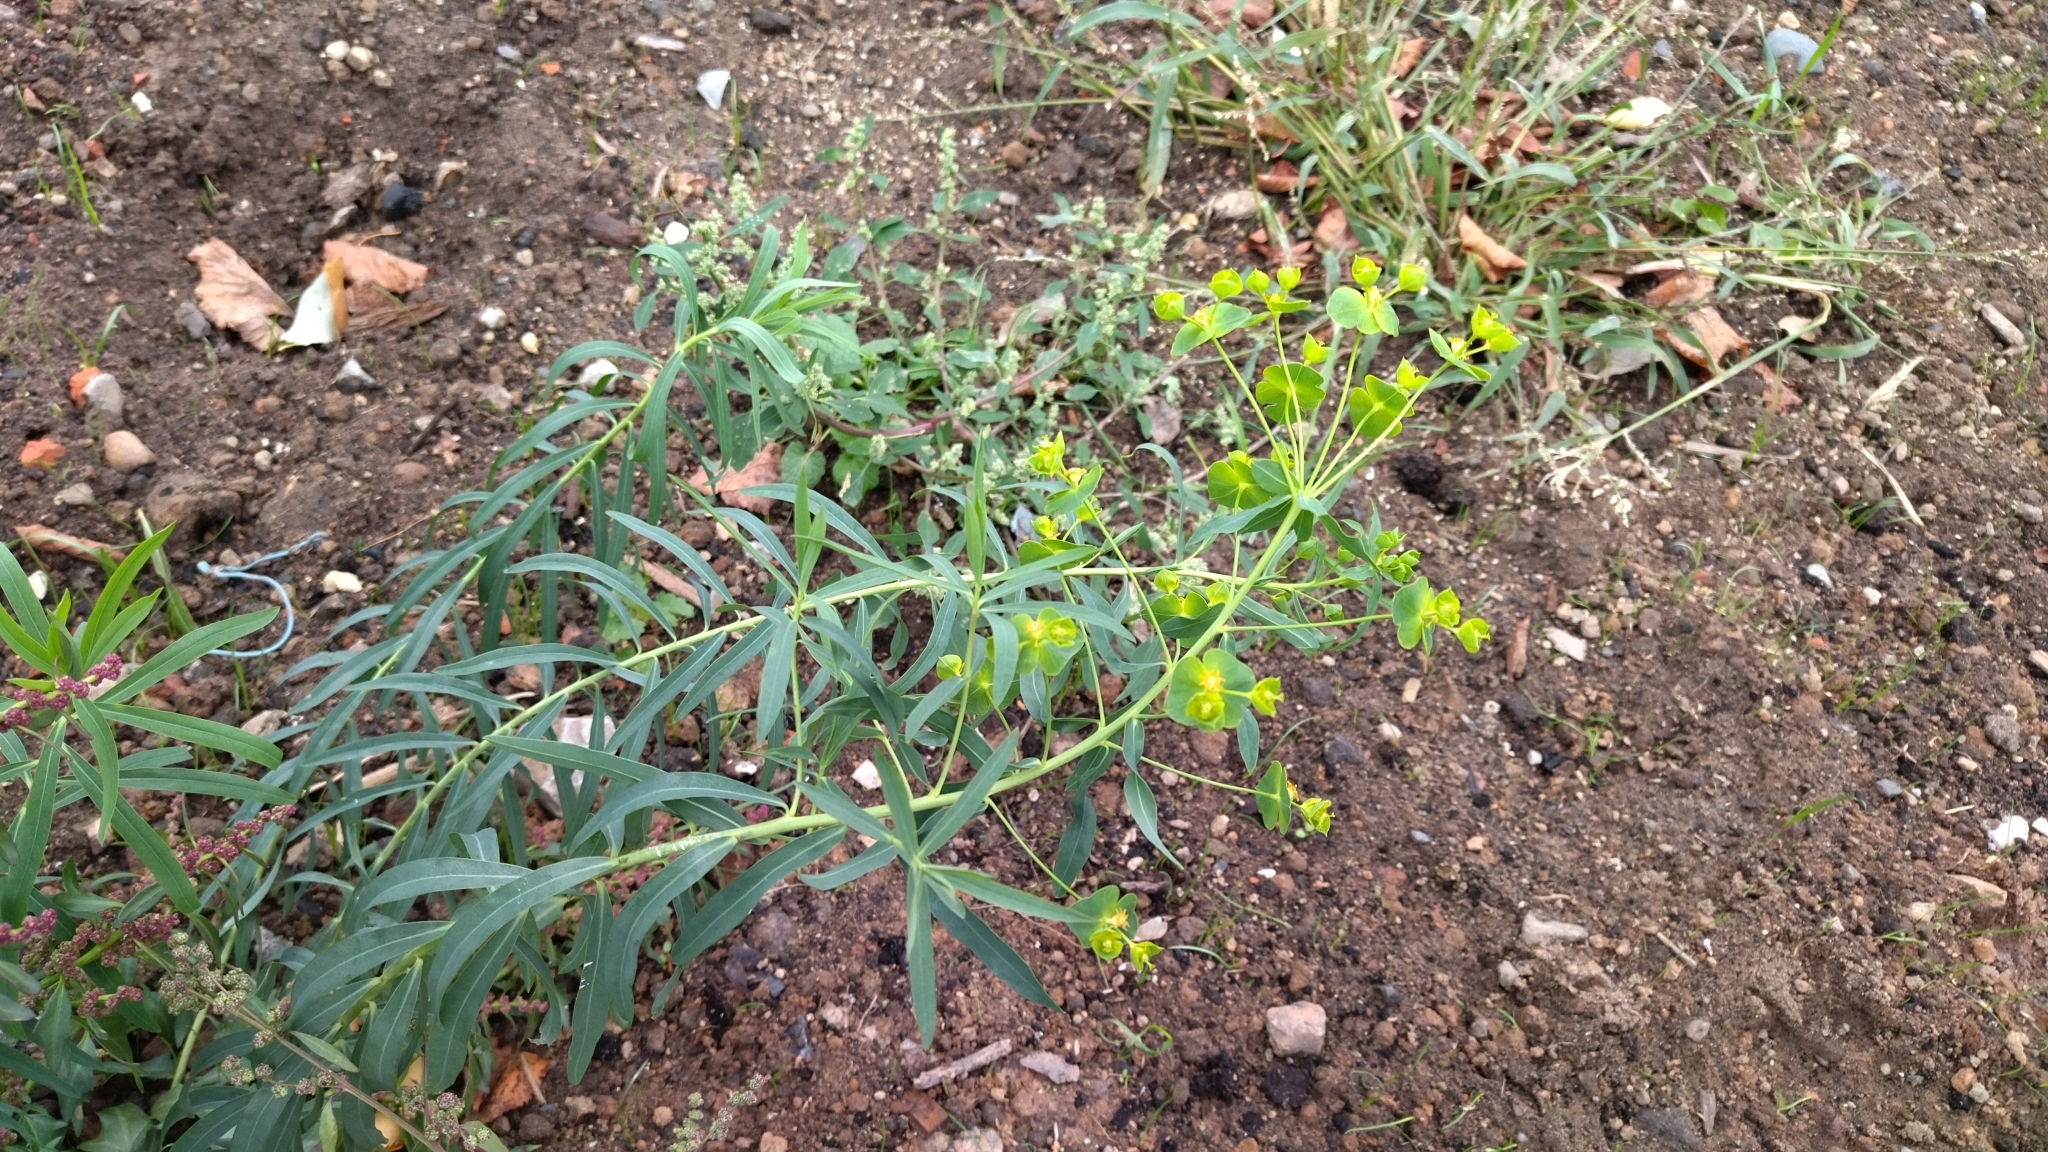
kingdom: Plantae
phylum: Tracheophyta
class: Magnoliopsida
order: Malpighiales
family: Euphorbiaceae
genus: Euphorbia
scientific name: Euphorbia virgata
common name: Leafy spurge
